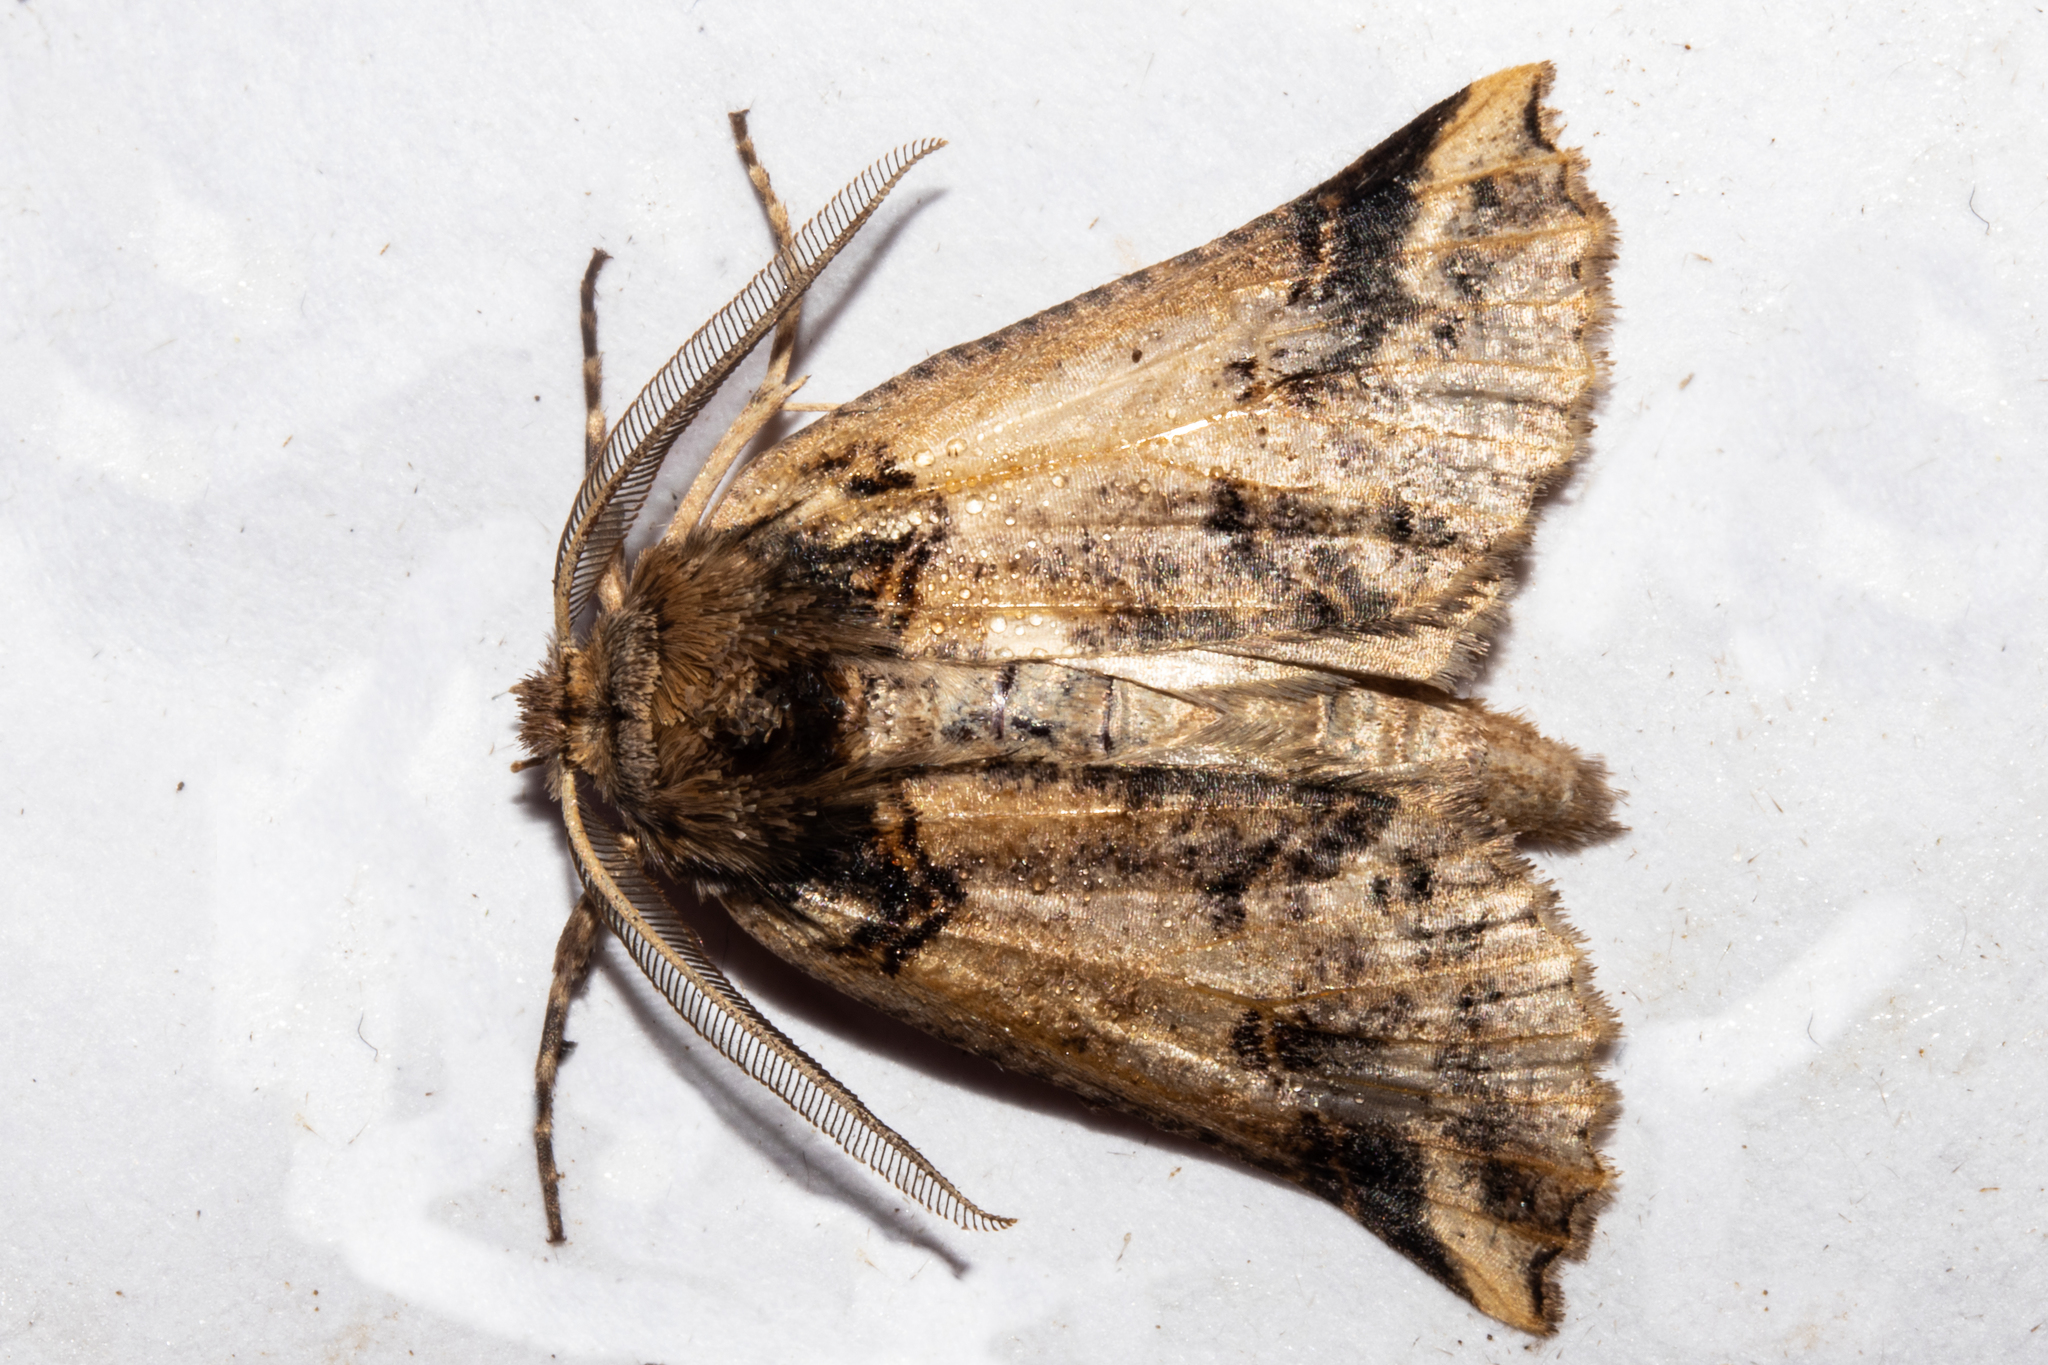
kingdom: Animalia
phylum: Arthropoda
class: Insecta
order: Lepidoptera
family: Geometridae
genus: Declana
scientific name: Declana
